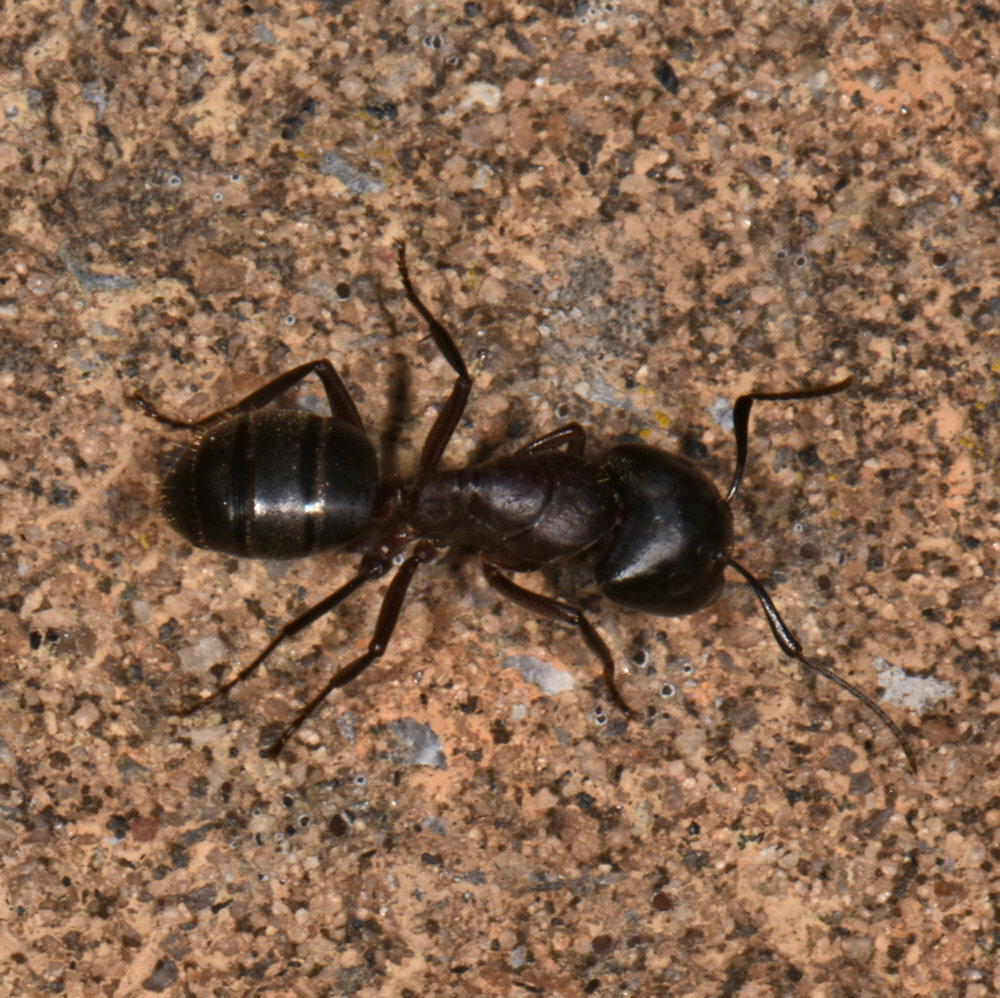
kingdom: Animalia
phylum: Arthropoda
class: Insecta
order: Hymenoptera
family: Formicidae
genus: Camponotus
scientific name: Camponotus novaeboracensis
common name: New york carpenter ant
